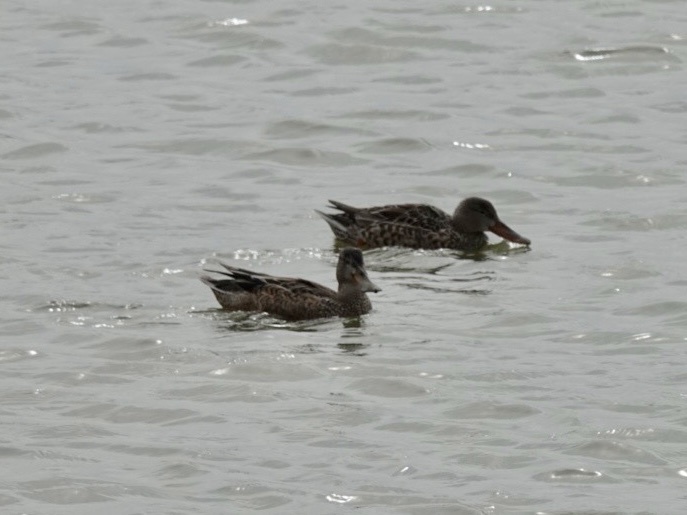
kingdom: Animalia
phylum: Chordata
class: Aves
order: Anseriformes
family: Anatidae
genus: Spatula
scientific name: Spatula clypeata
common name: Northern shoveler
